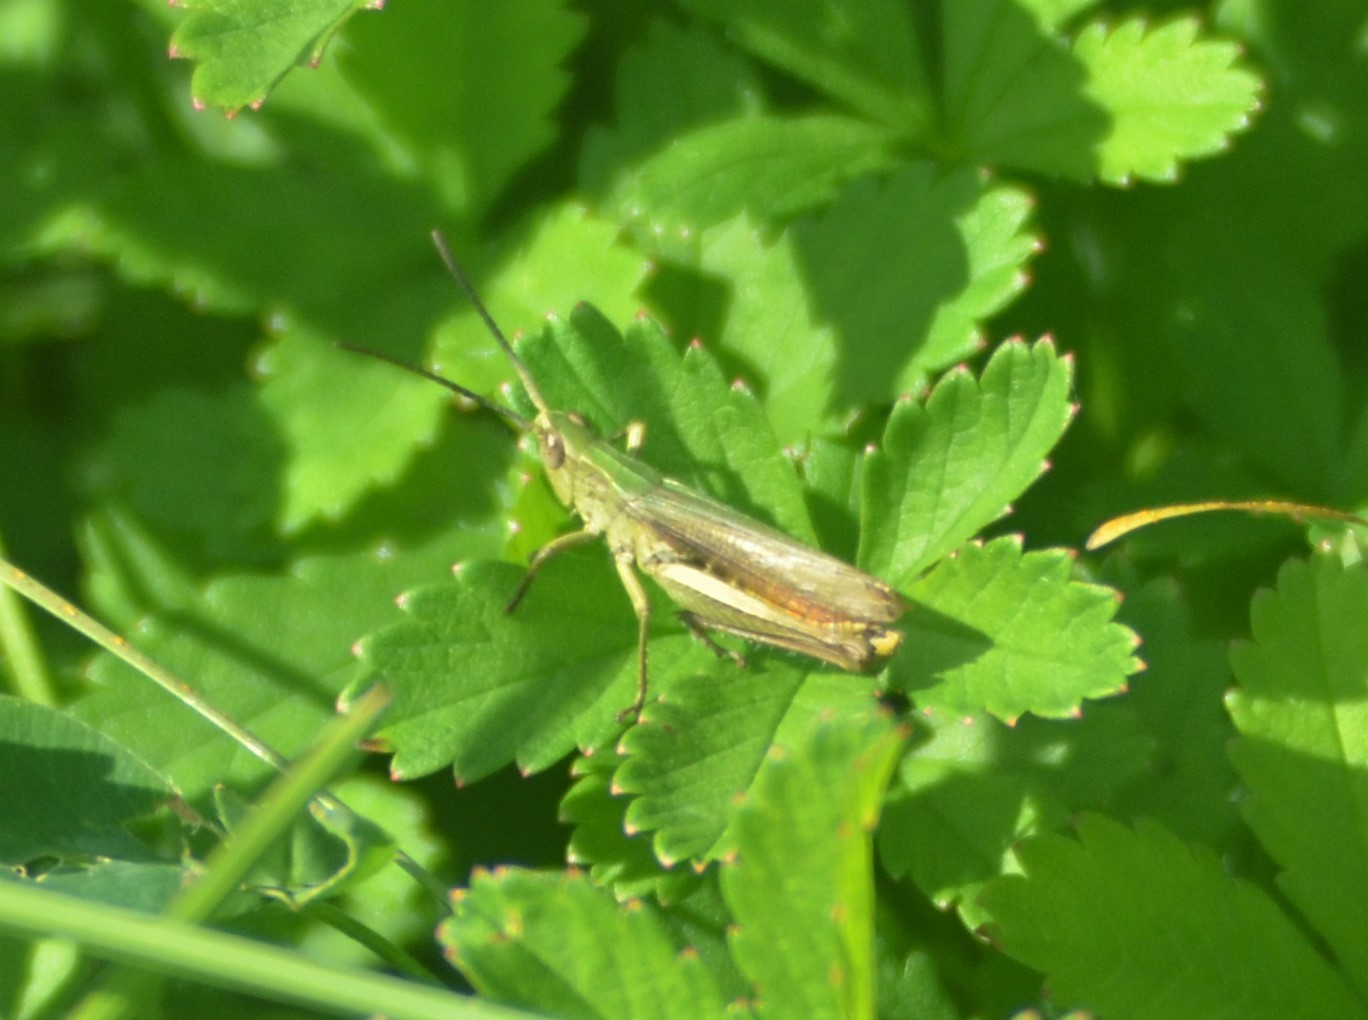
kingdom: Animalia
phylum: Arthropoda
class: Insecta
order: Orthoptera
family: Acrididae
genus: Chorthippus
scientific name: Chorthippus dorsatus
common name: Steppe grasshopper
